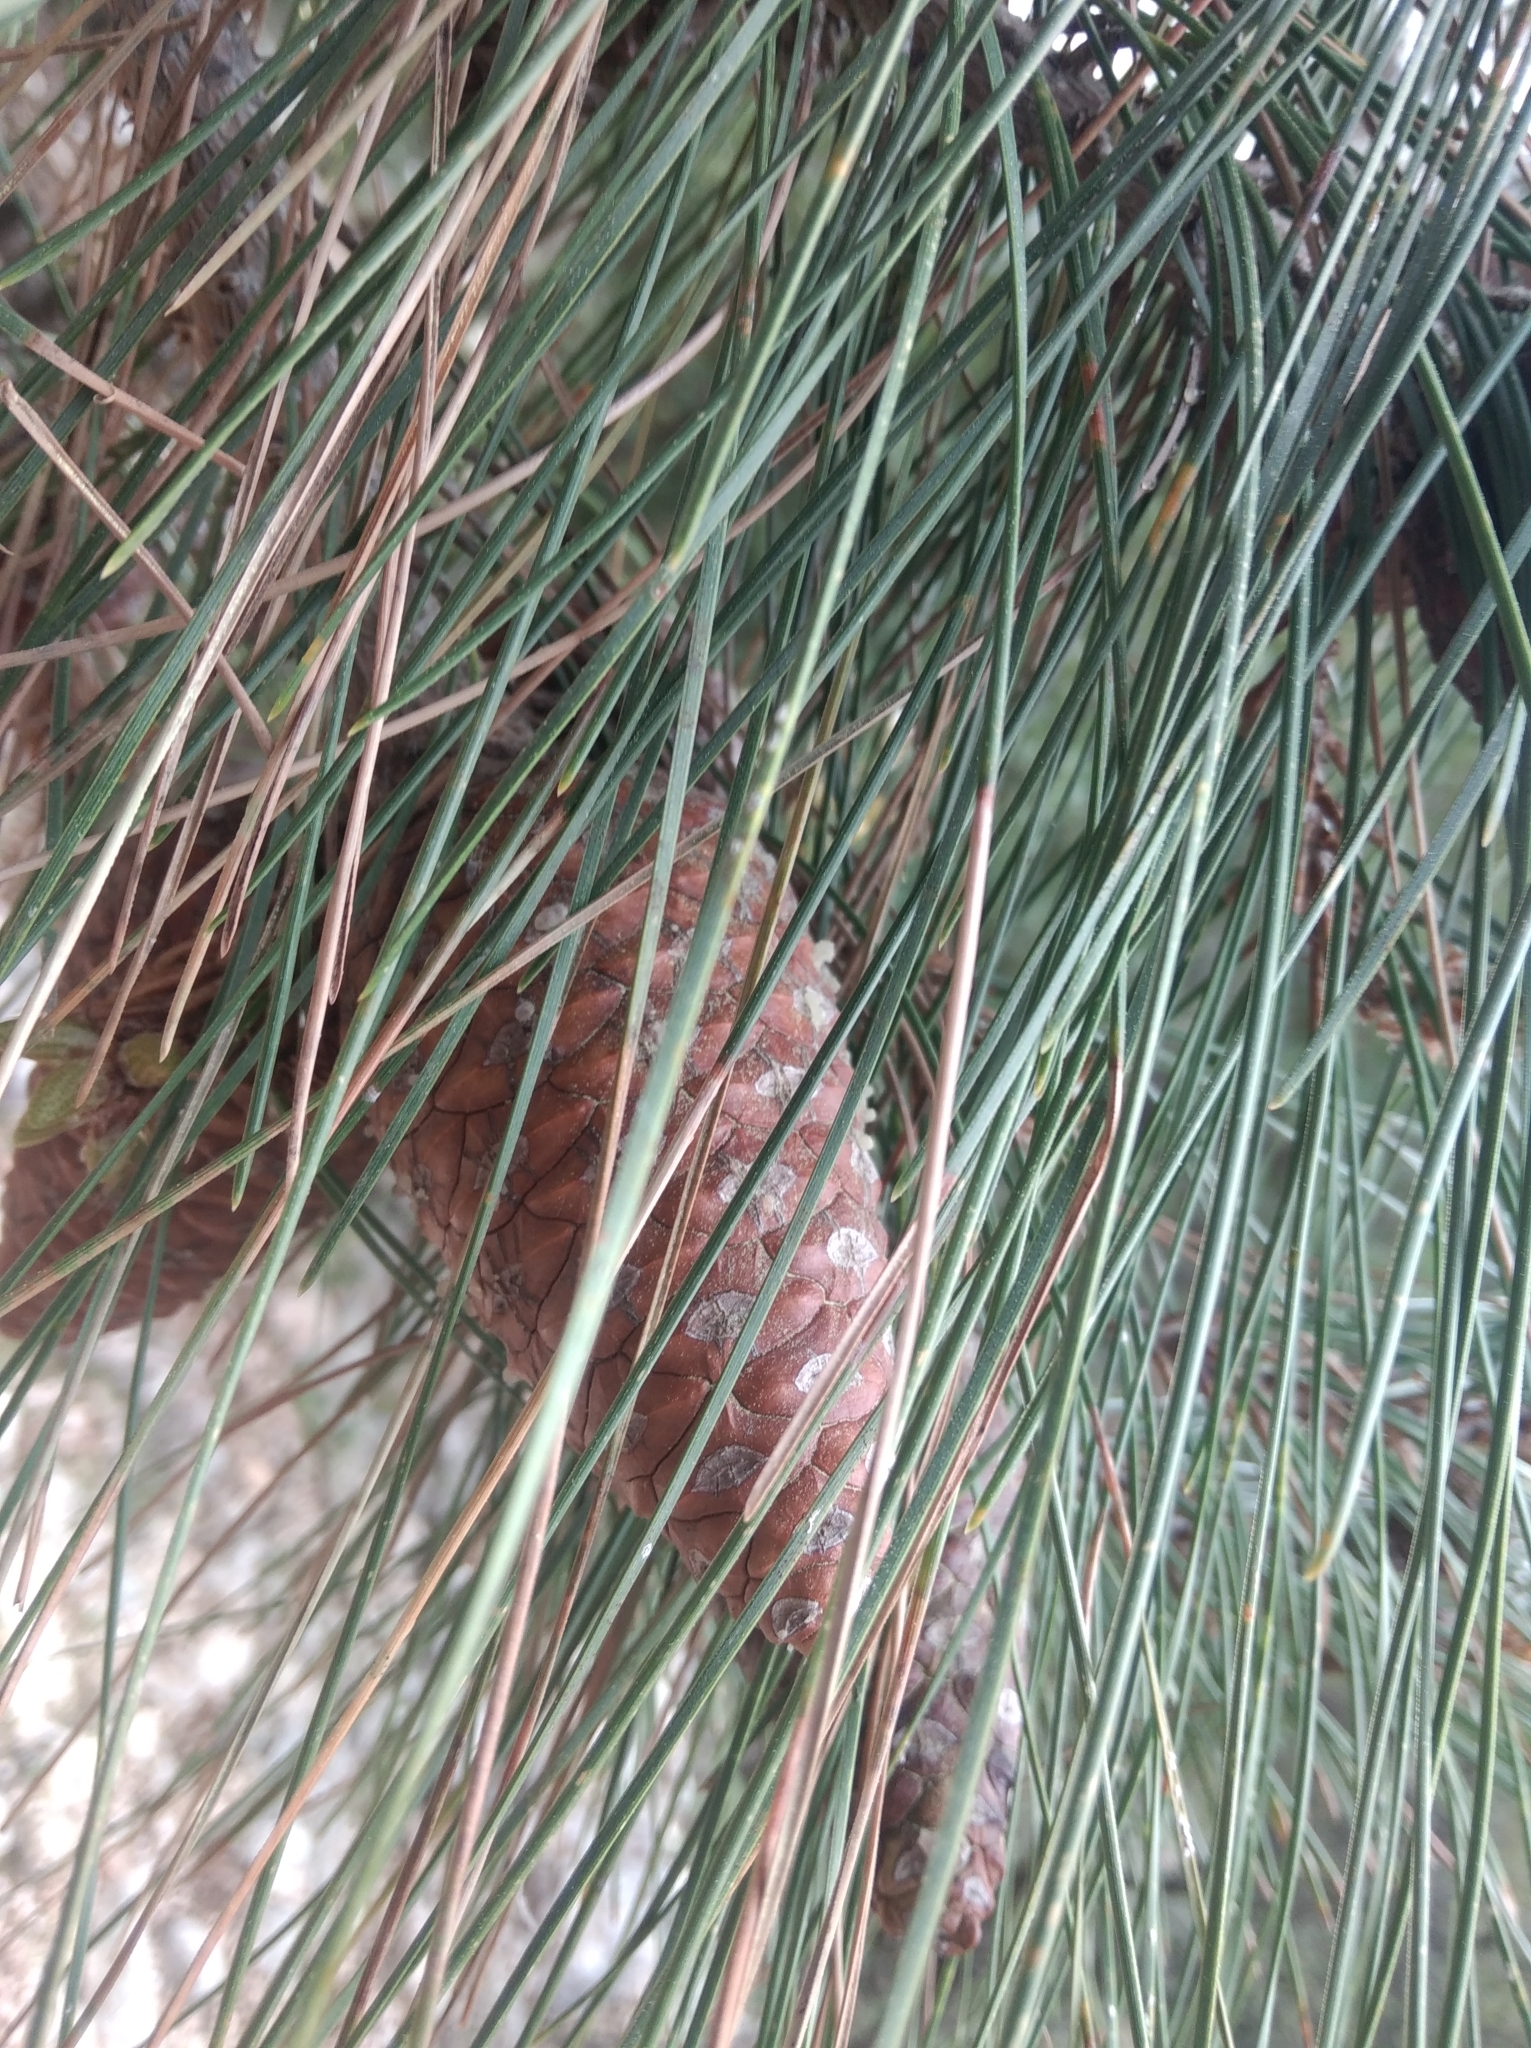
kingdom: Plantae
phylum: Tracheophyta
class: Pinopsida
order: Pinales
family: Pinaceae
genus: Pinus
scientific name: Pinus brutia
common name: Turkish pine
